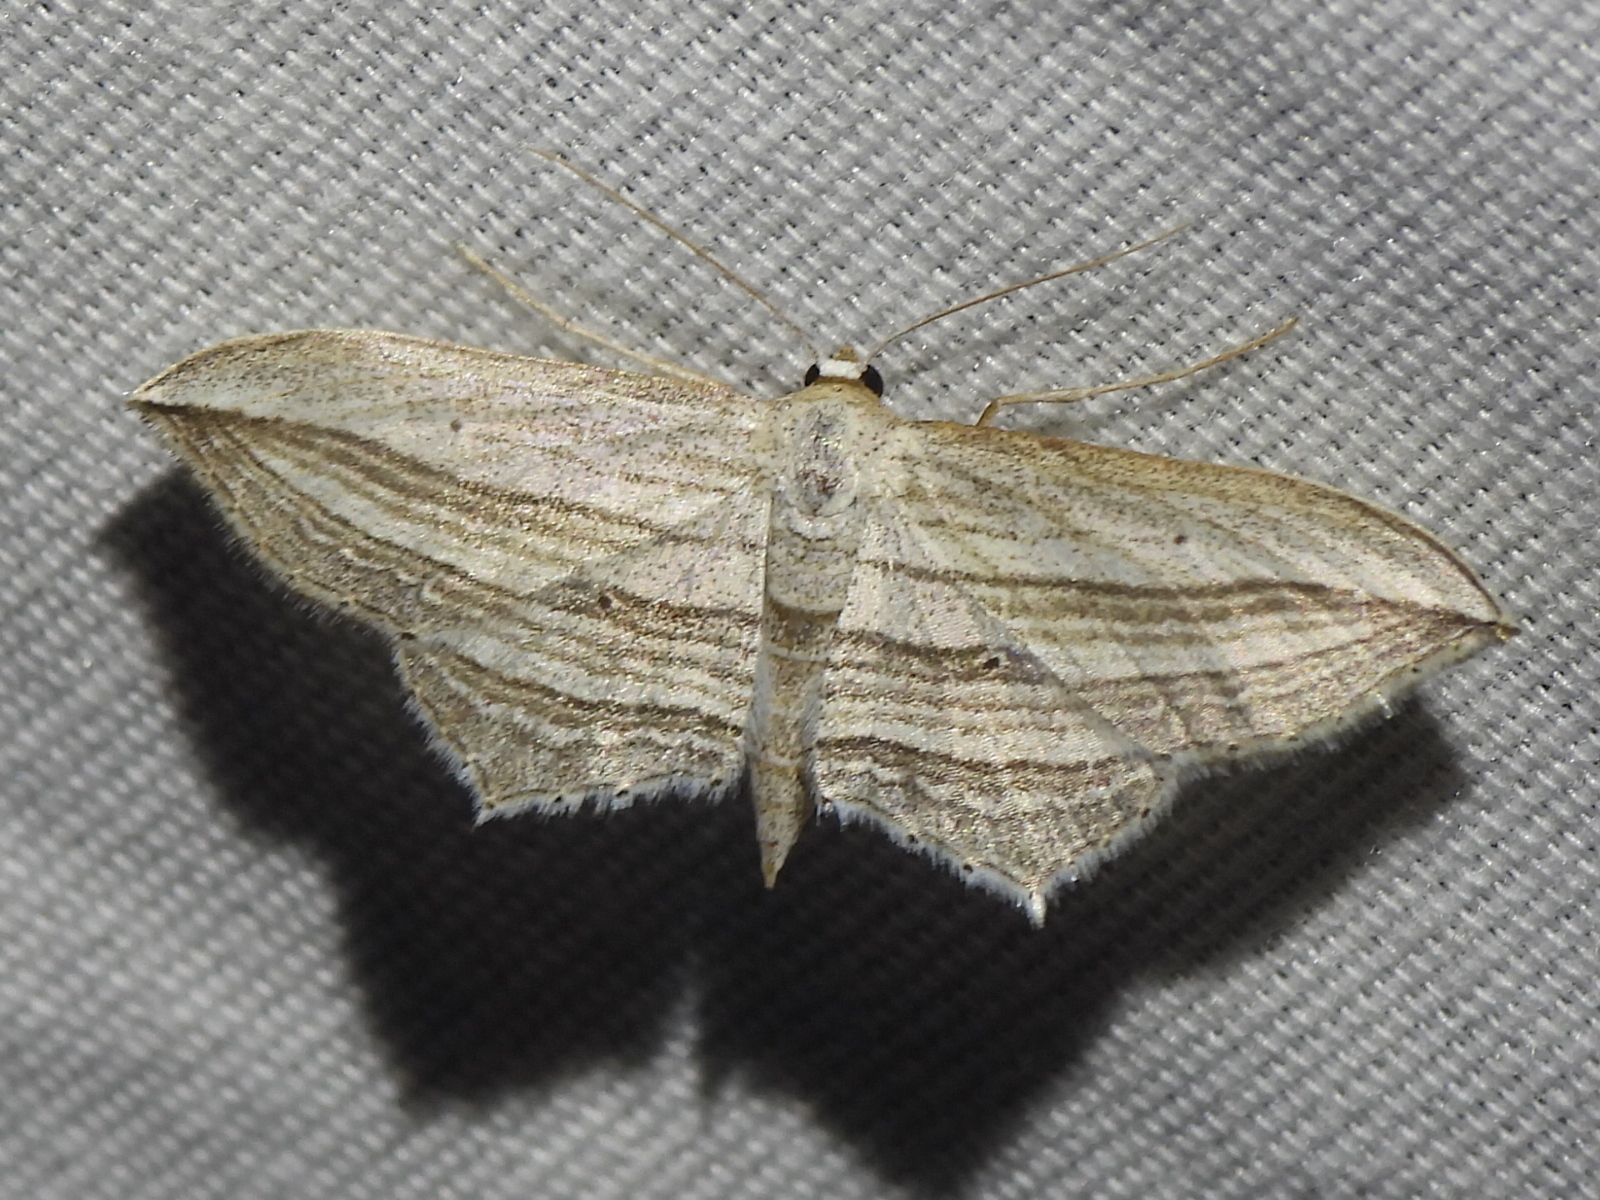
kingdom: Animalia
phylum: Arthropoda
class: Insecta
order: Lepidoptera
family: Geometridae
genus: Arcobara
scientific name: Arcobara multilineata
